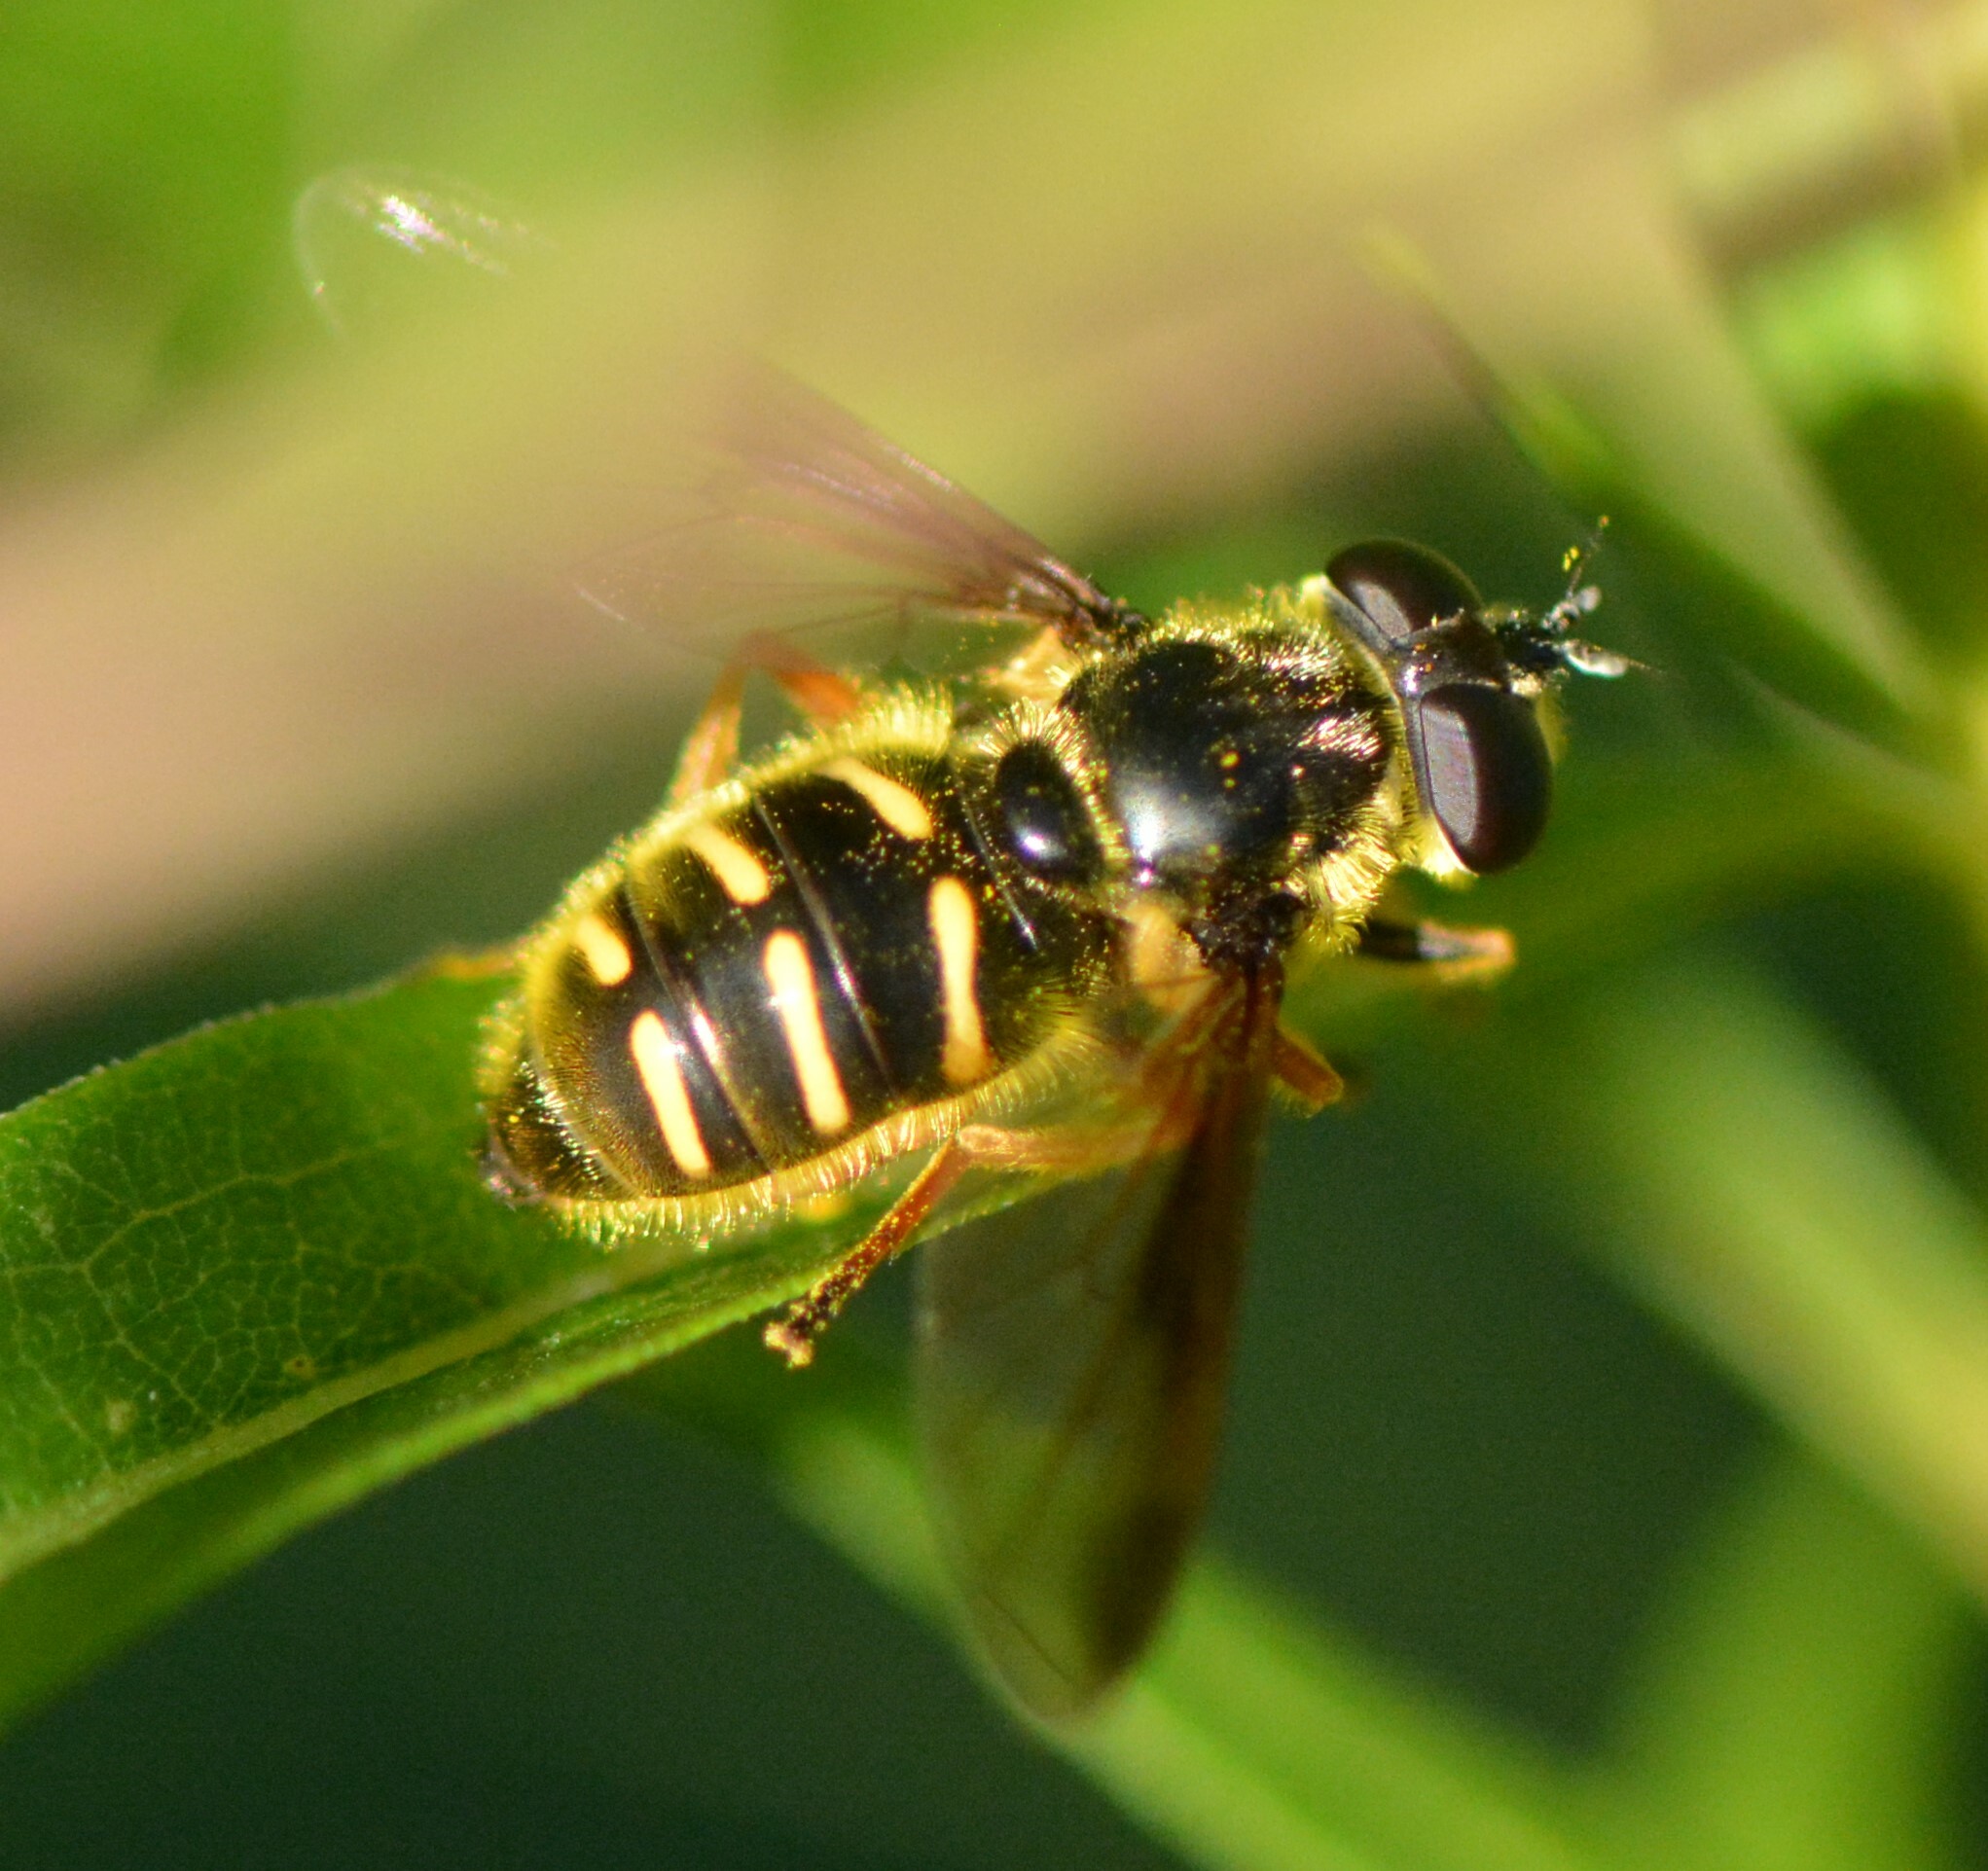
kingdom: Animalia
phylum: Arthropoda
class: Insecta
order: Diptera
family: Syrphidae
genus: Sericomyia
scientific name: Sericomyia chrysotoxoides
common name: Oblique-banded pond fly
